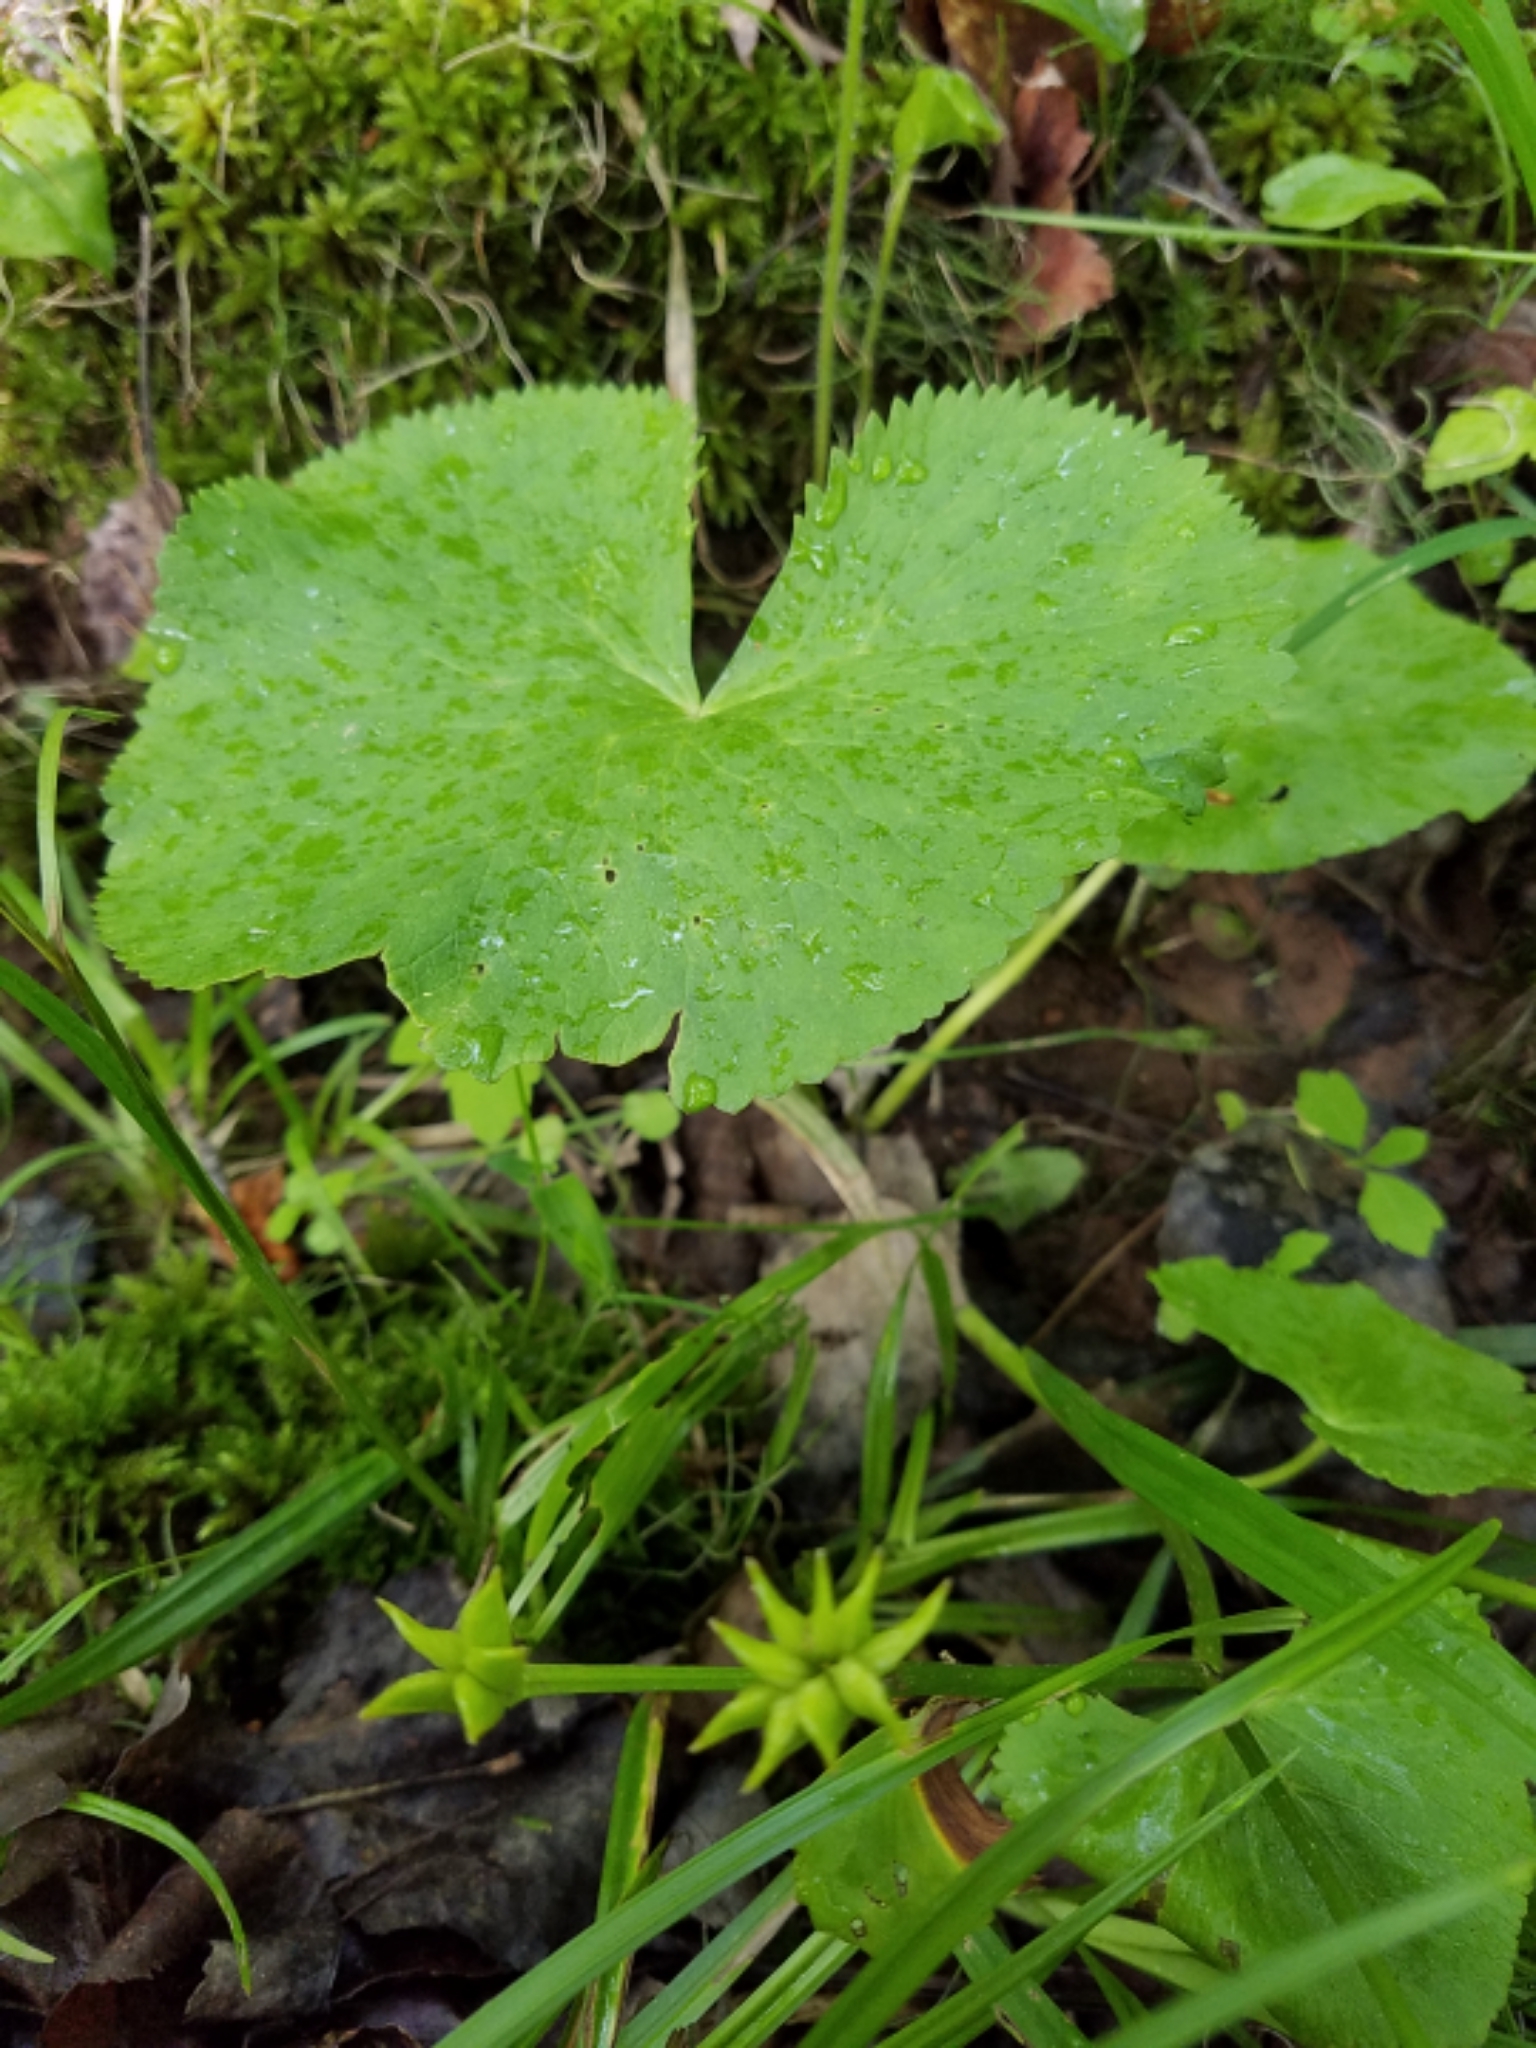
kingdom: Plantae
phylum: Tracheophyta
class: Magnoliopsida
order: Ranunculales
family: Ranunculaceae
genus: Caltha
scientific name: Caltha palustris
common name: Marsh marigold
